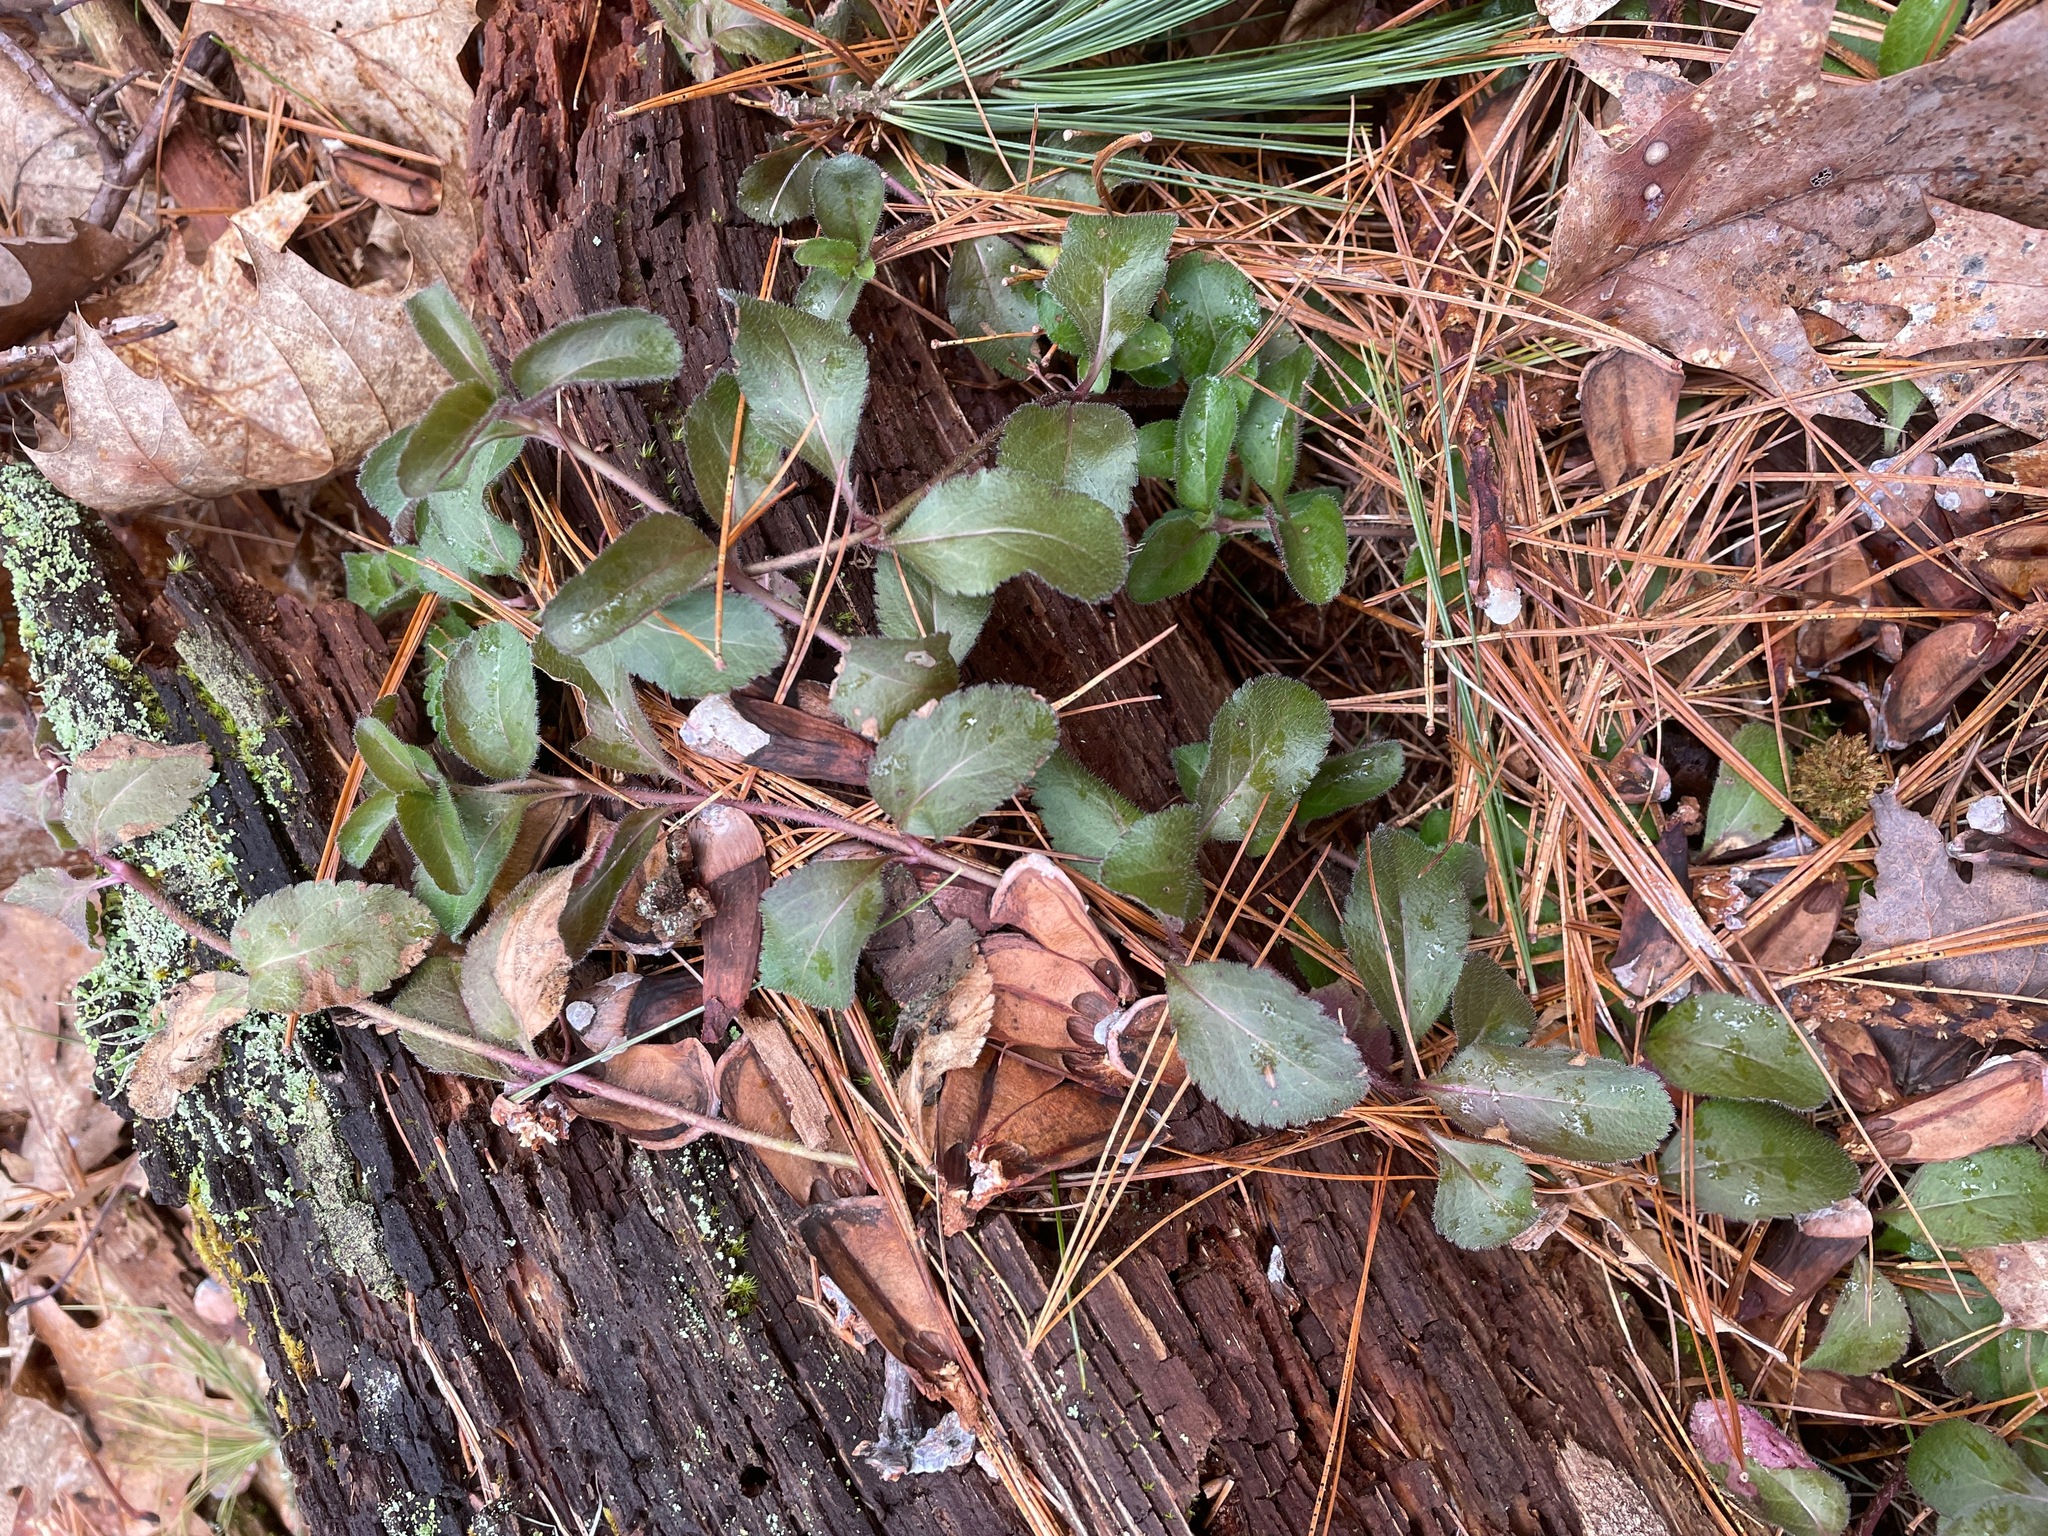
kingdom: Plantae
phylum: Tracheophyta
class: Magnoliopsida
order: Lamiales
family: Plantaginaceae
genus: Veronica
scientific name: Veronica officinalis
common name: Common speedwell
